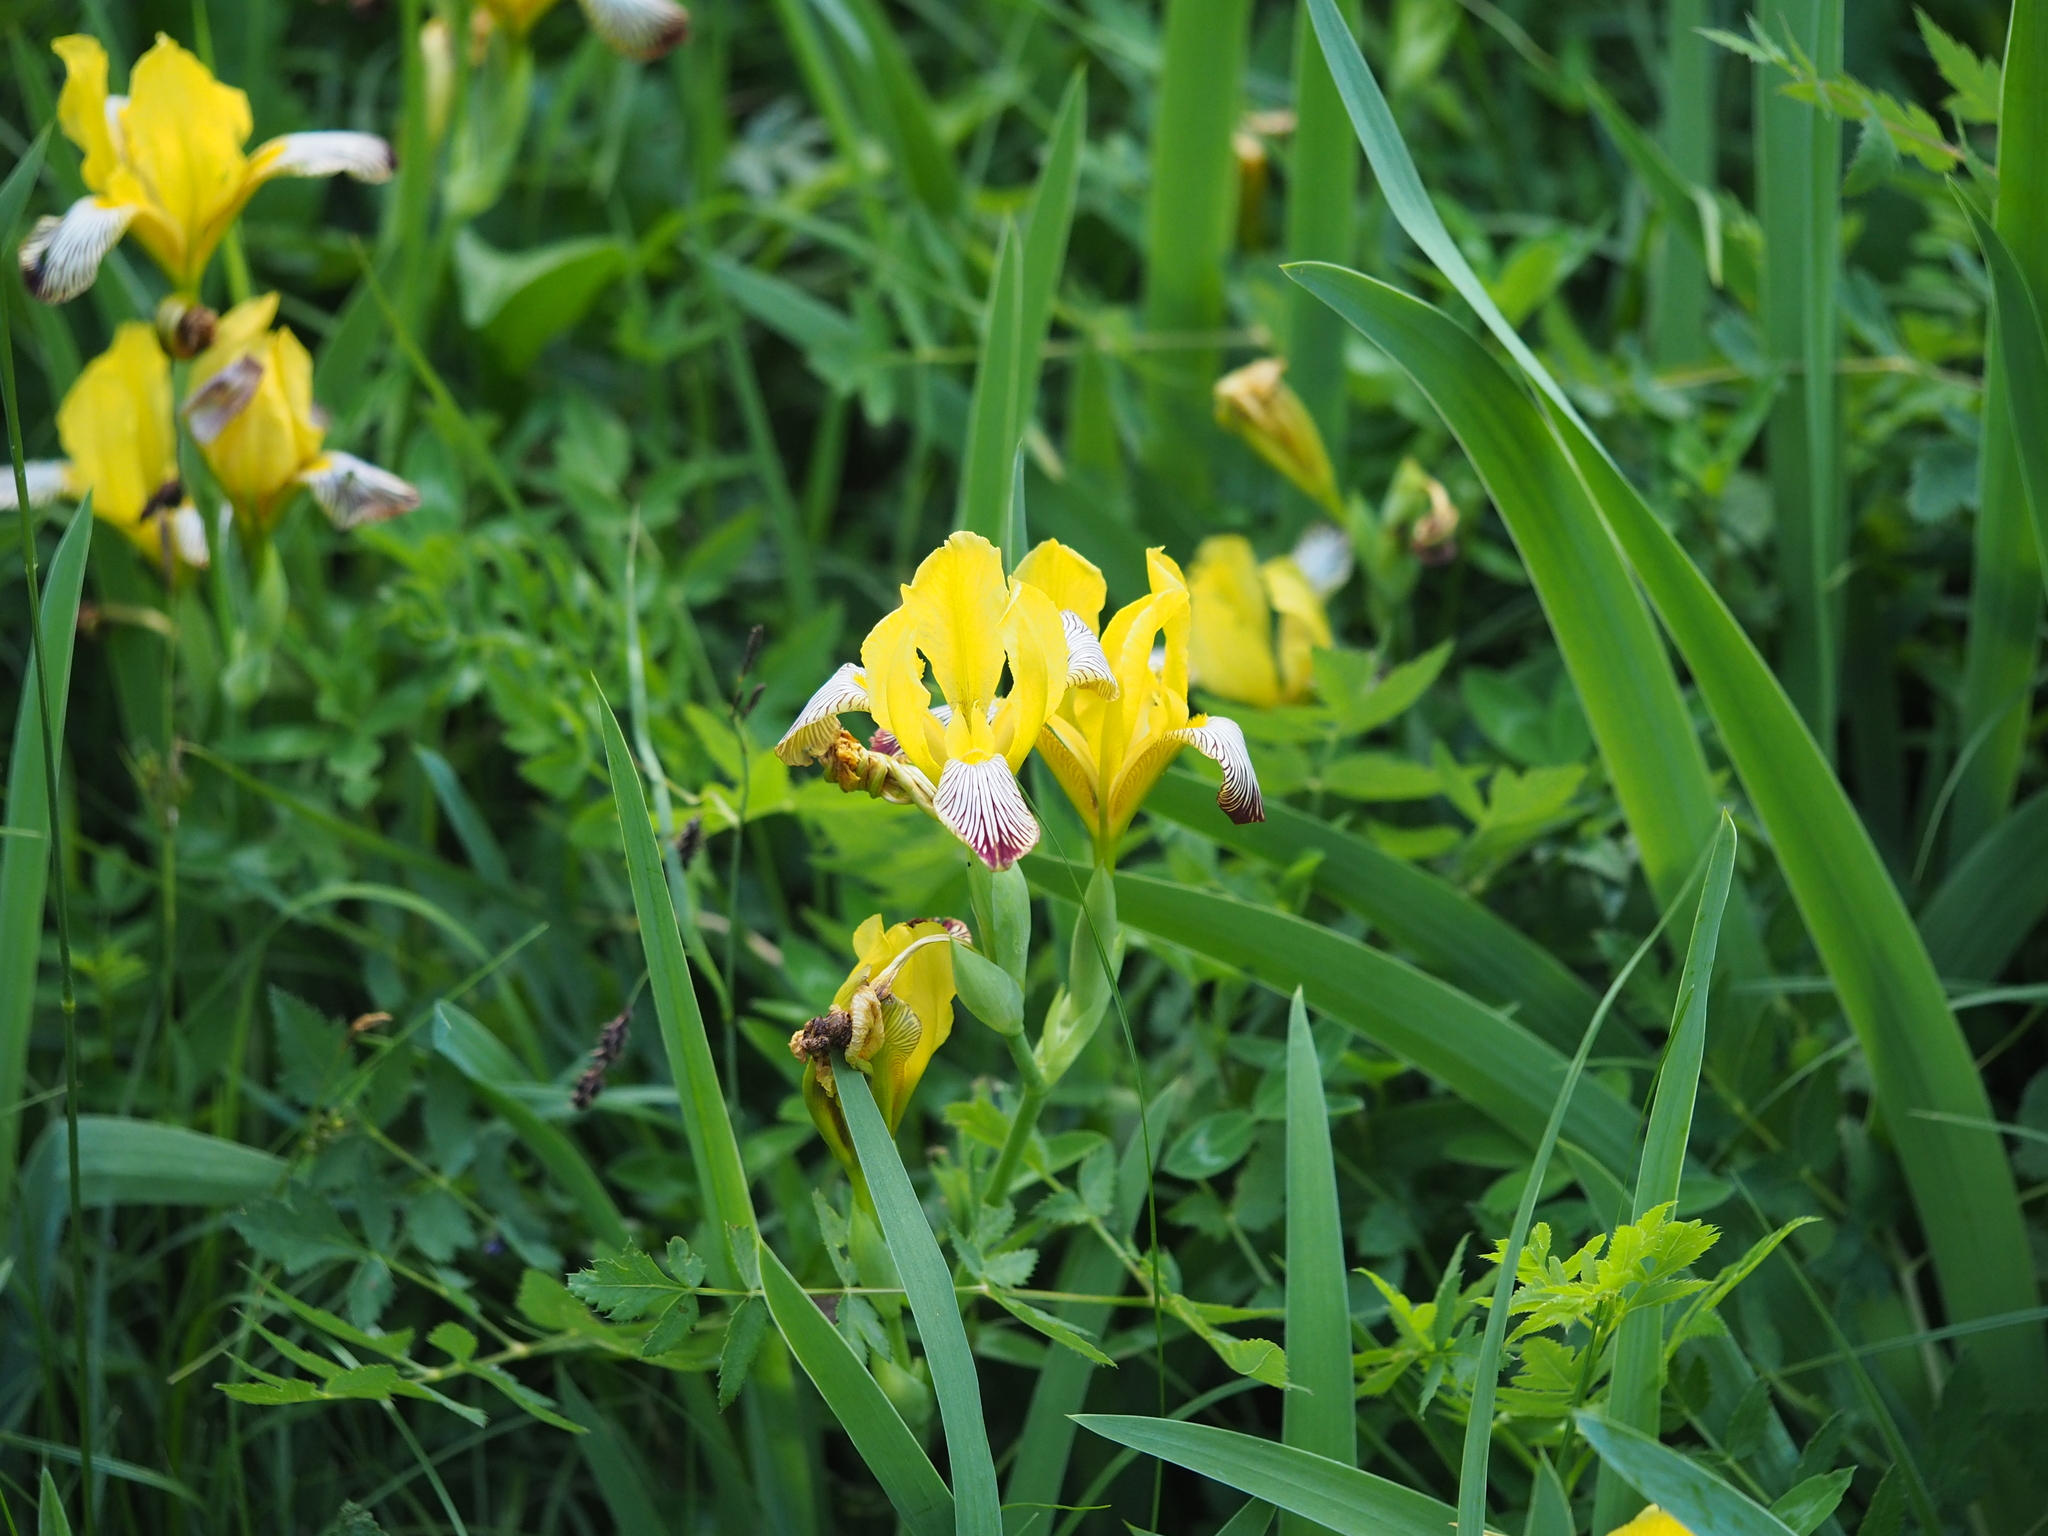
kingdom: Plantae
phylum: Tracheophyta
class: Liliopsida
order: Asparagales
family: Iridaceae
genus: Iris
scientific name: Iris variegata
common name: Hungarian iris
